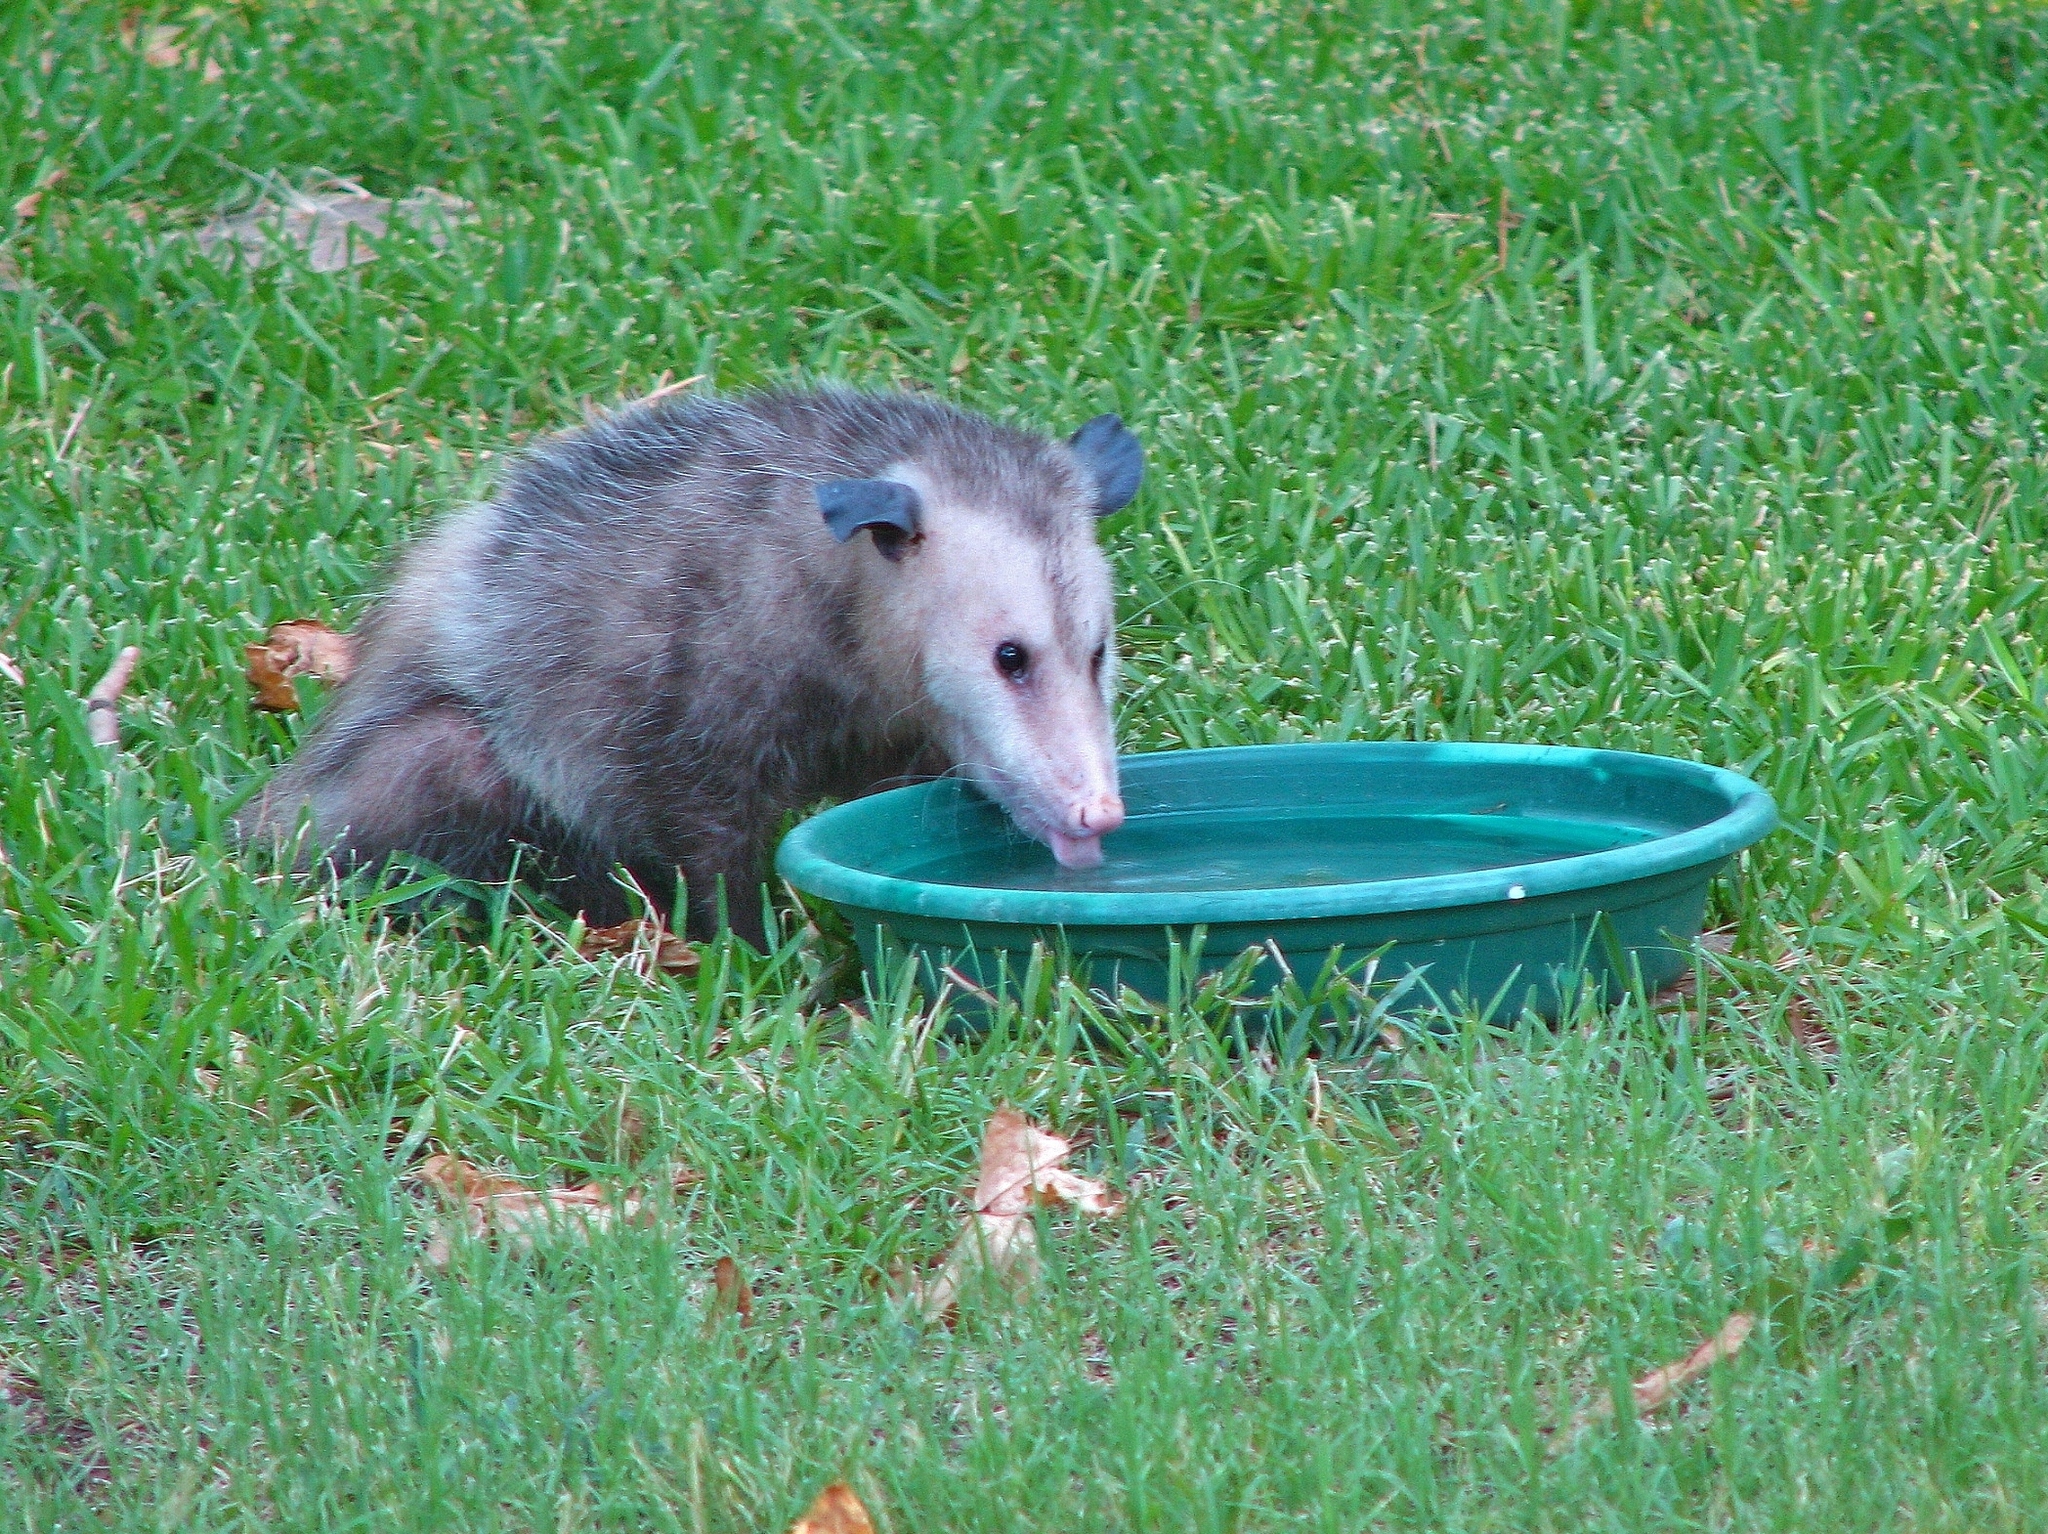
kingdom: Animalia
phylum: Chordata
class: Mammalia
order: Didelphimorphia
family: Didelphidae
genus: Didelphis
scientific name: Didelphis virginiana
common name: Virginia opossum
